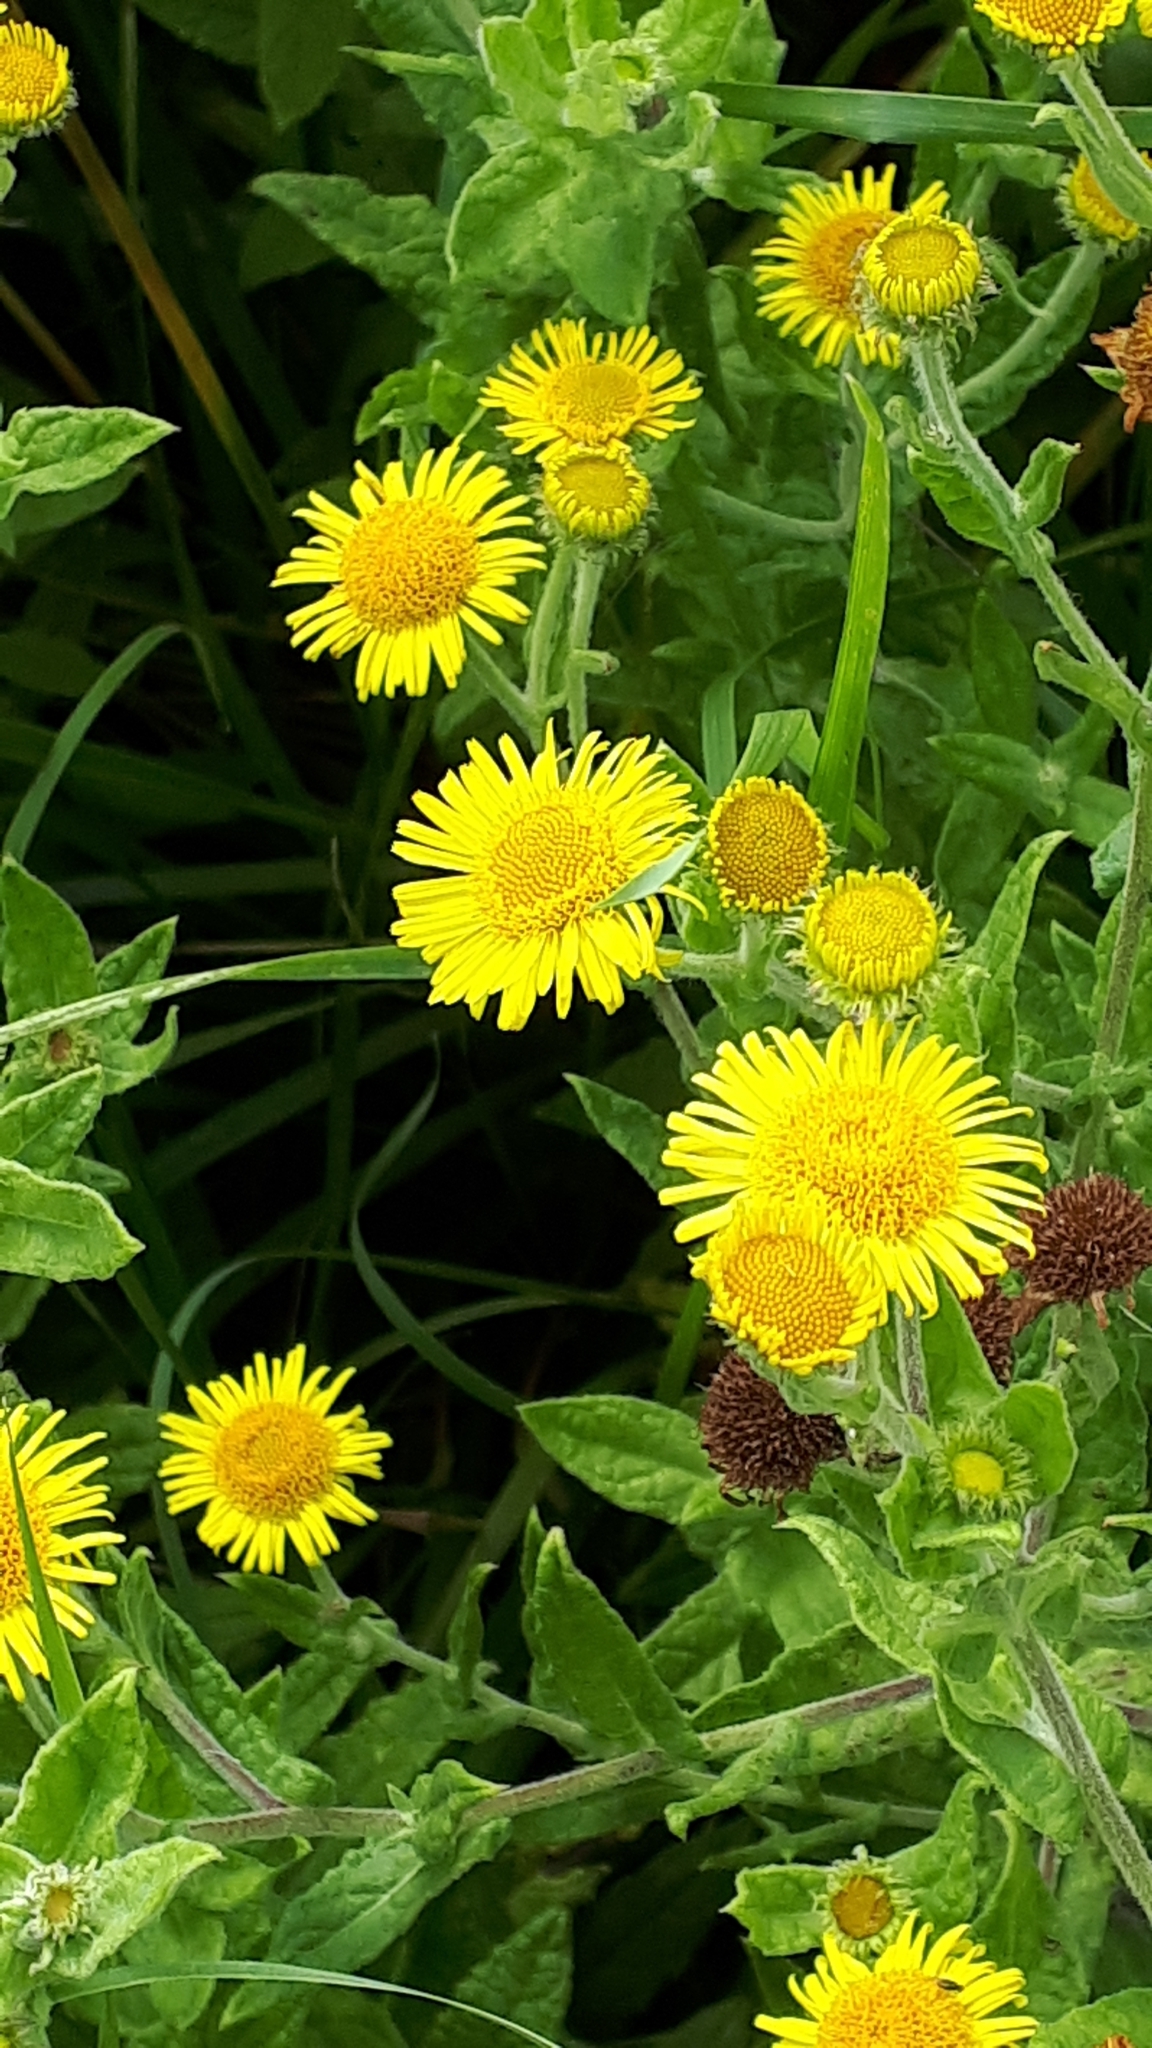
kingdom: Plantae
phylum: Tracheophyta
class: Magnoliopsida
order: Asterales
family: Asteraceae
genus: Pulicaria
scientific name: Pulicaria dysenterica
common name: Common fleabane
